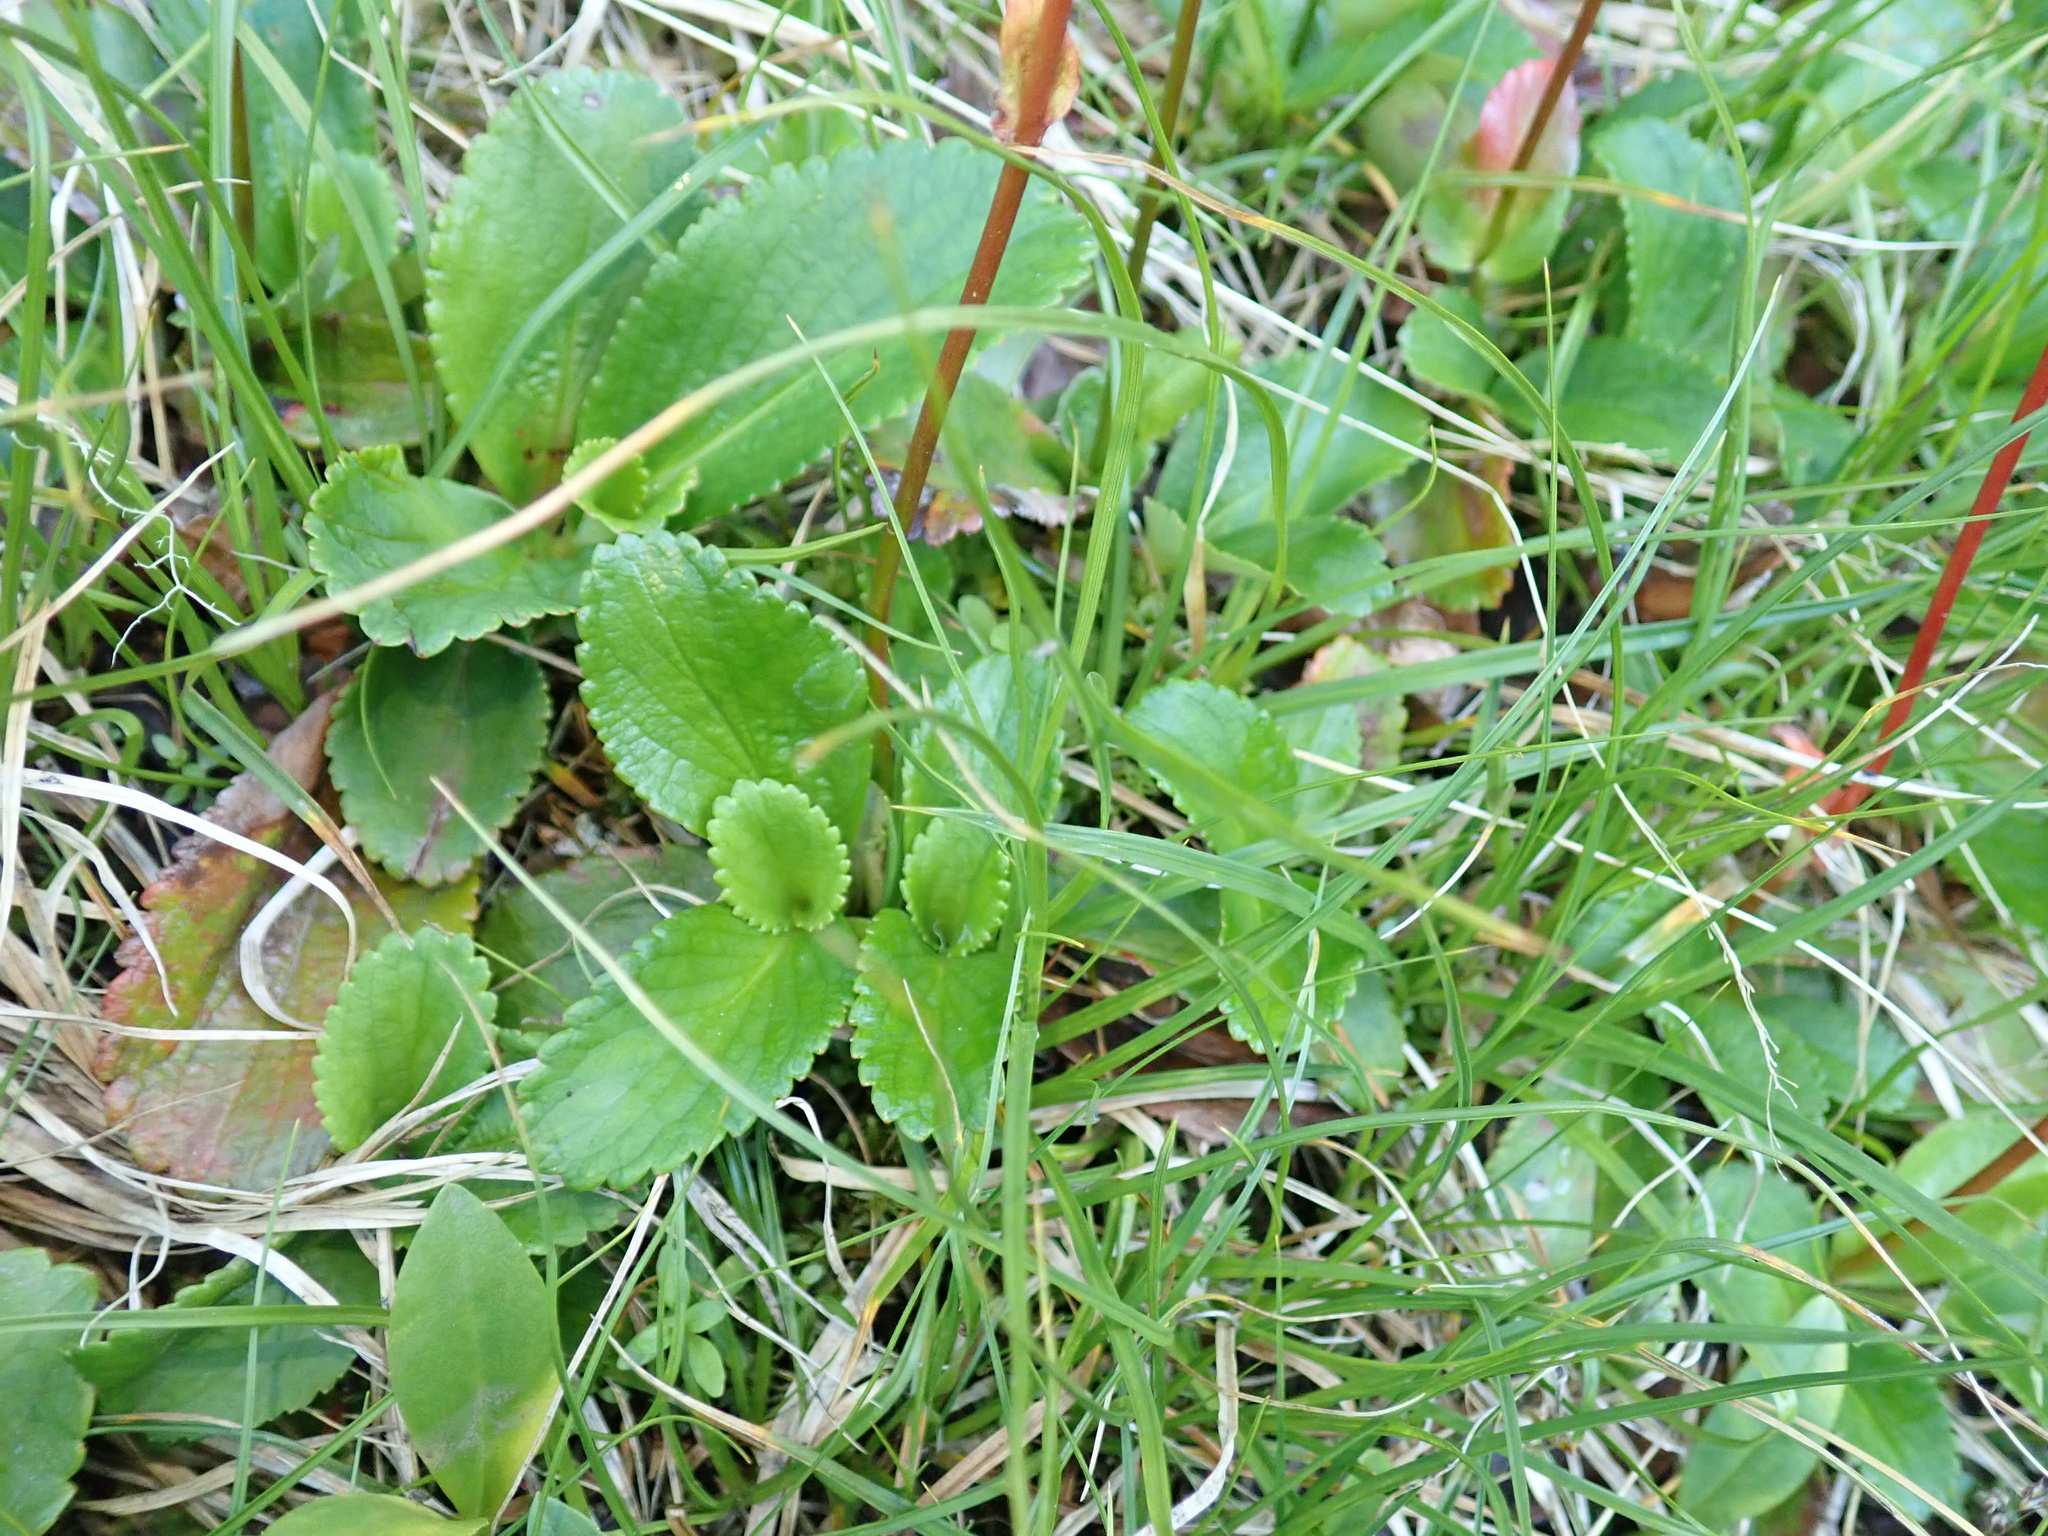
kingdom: Plantae
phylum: Tracheophyta
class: Magnoliopsida
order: Saxifragales
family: Saxifragaceae
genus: Leptarrhena
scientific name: Leptarrhena pyrolifolia
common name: Leatherleaf-saxifrage
